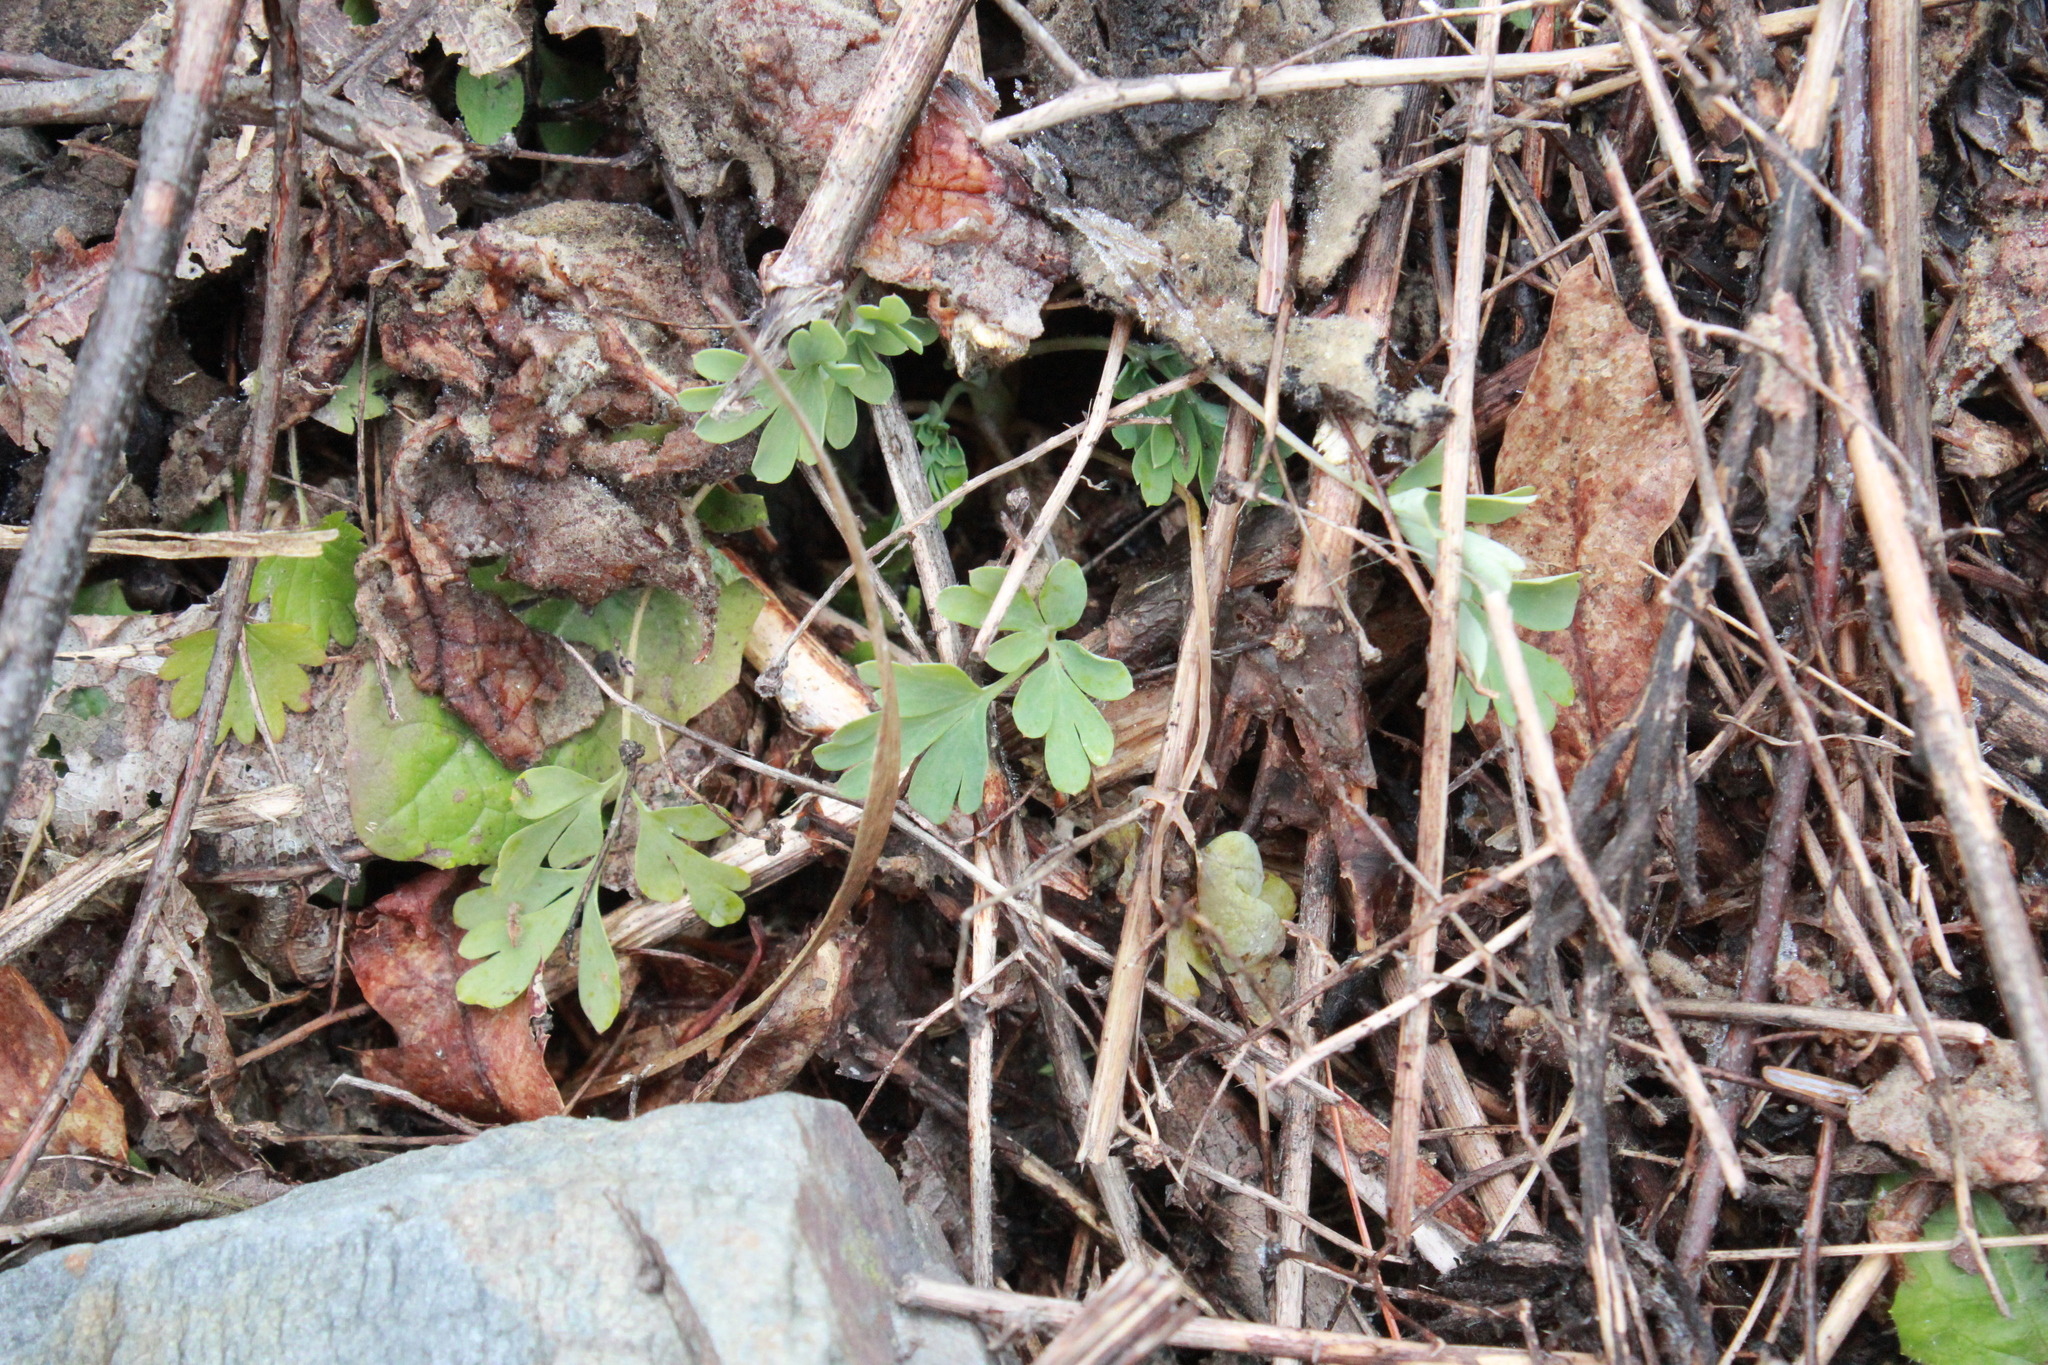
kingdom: Plantae
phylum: Tracheophyta
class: Magnoliopsida
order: Ranunculales
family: Papaveraceae
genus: Capnoides
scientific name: Capnoides sempervirens
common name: Rock harlequin
